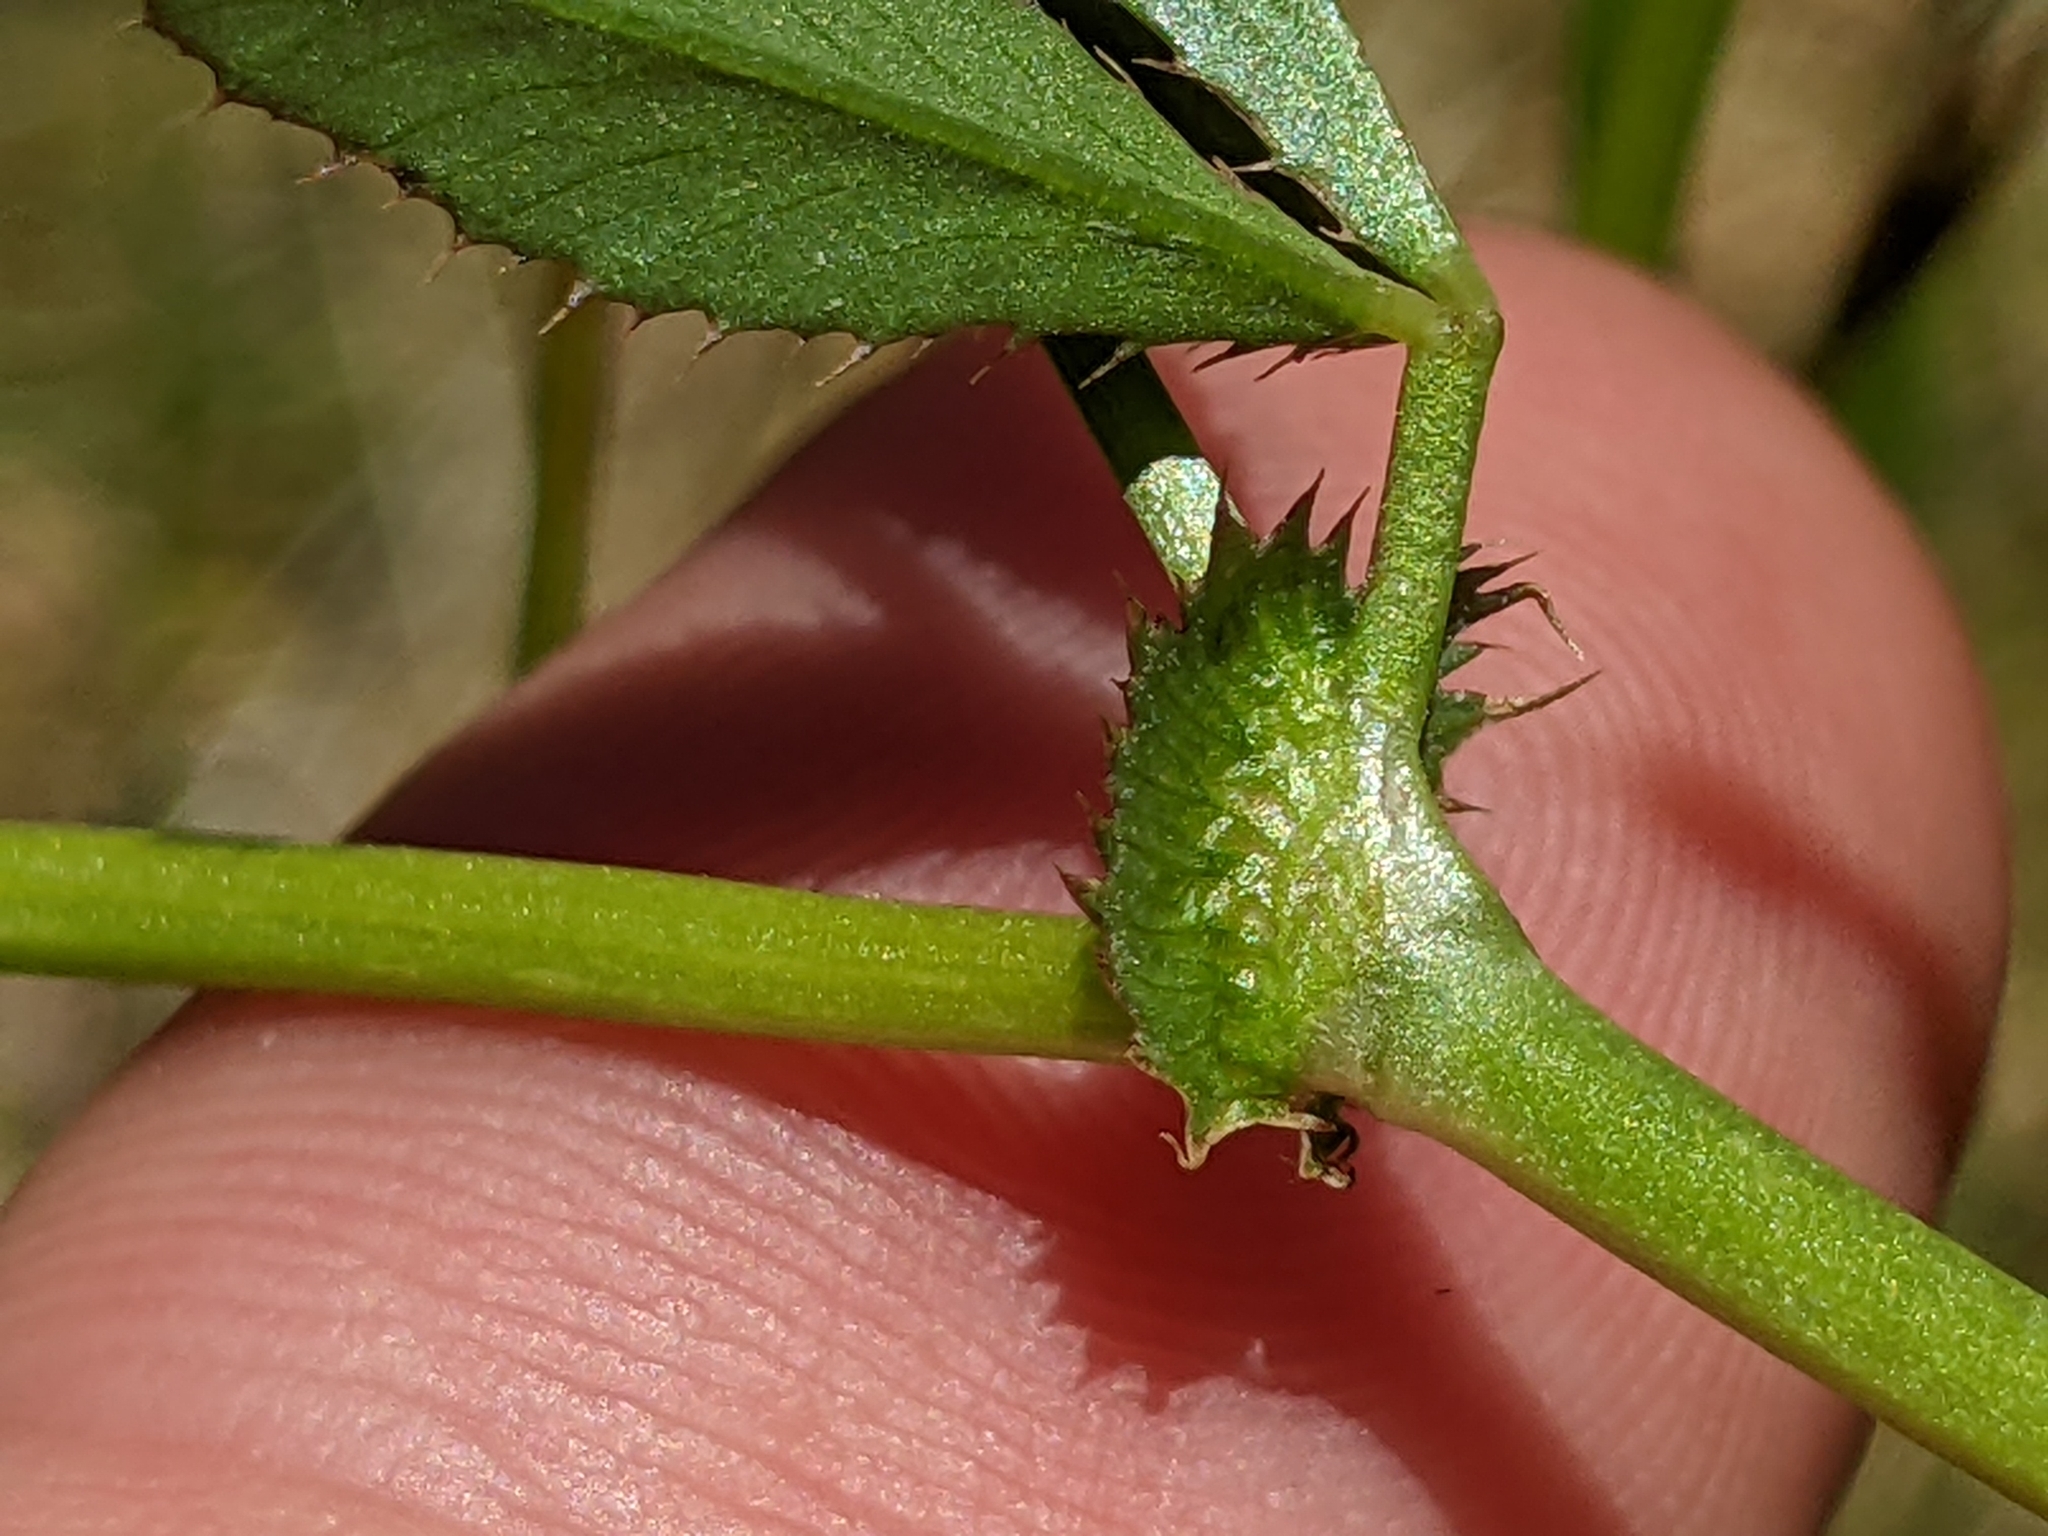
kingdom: Plantae
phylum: Tracheophyta
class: Magnoliopsida
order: Fabales
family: Fabaceae
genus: Trifolium
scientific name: Trifolium variegatum
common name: Whitetip clover
